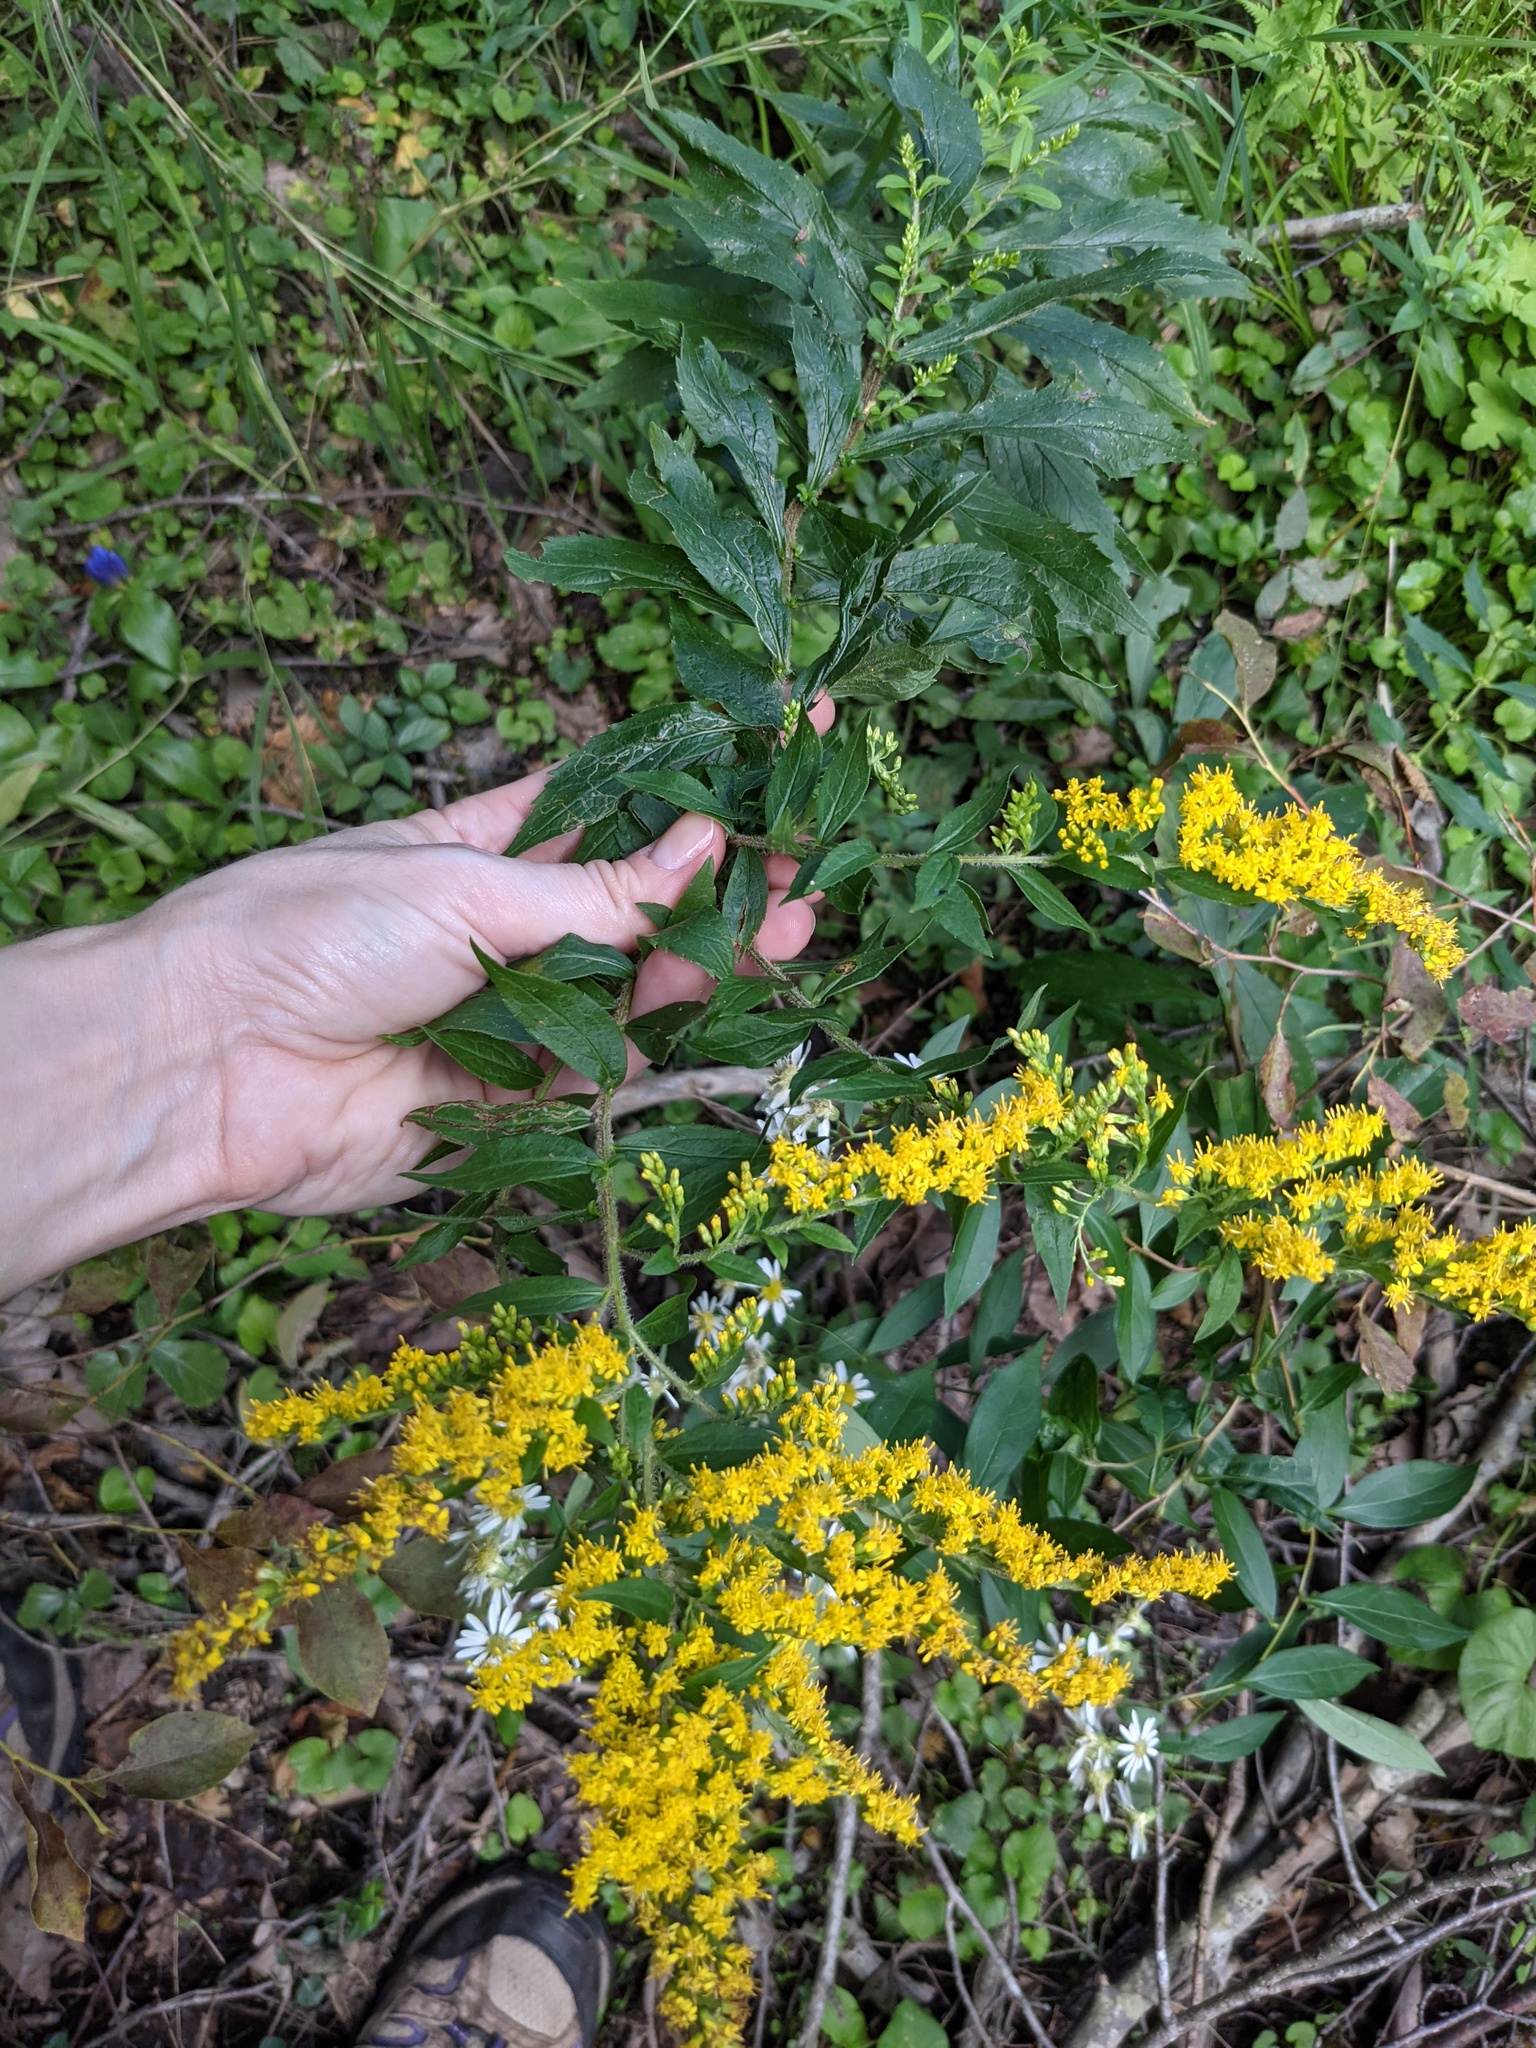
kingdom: Plantae
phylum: Tracheophyta
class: Magnoliopsida
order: Asterales
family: Asteraceae
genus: Solidago
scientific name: Solidago rugosa
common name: Rough-stemmed goldenrod
